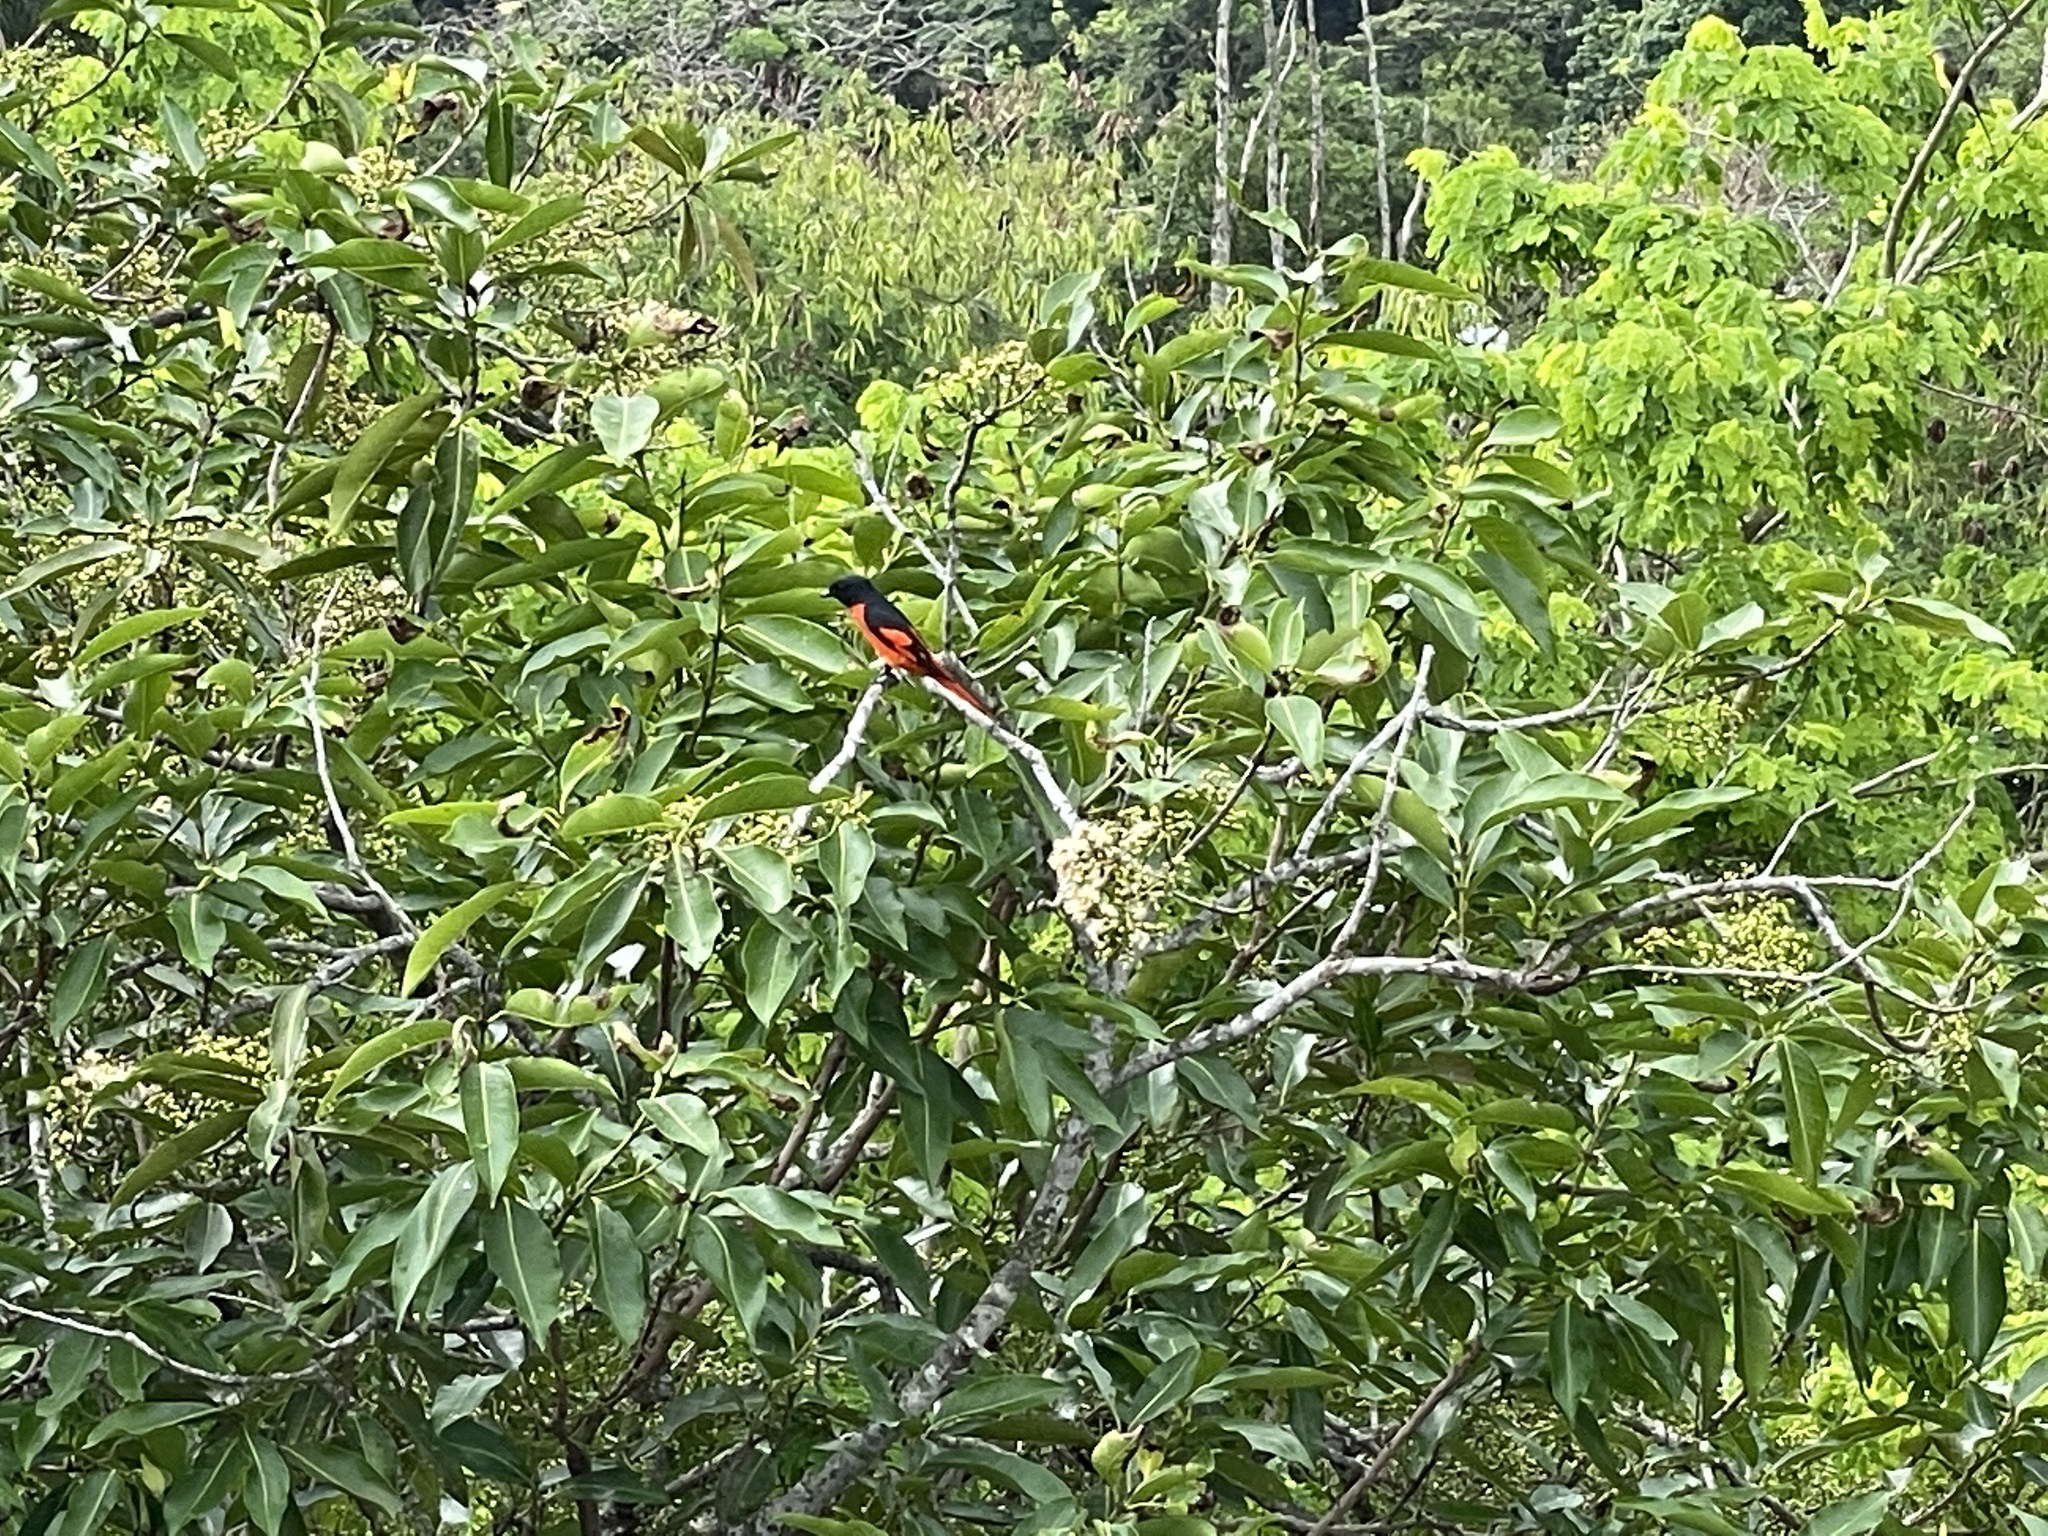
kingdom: Animalia
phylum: Chordata
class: Aves
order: Passeriformes
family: Campephagidae
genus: Pericrocotus
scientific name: Pericrocotus speciosus
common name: Scarlet minivet
